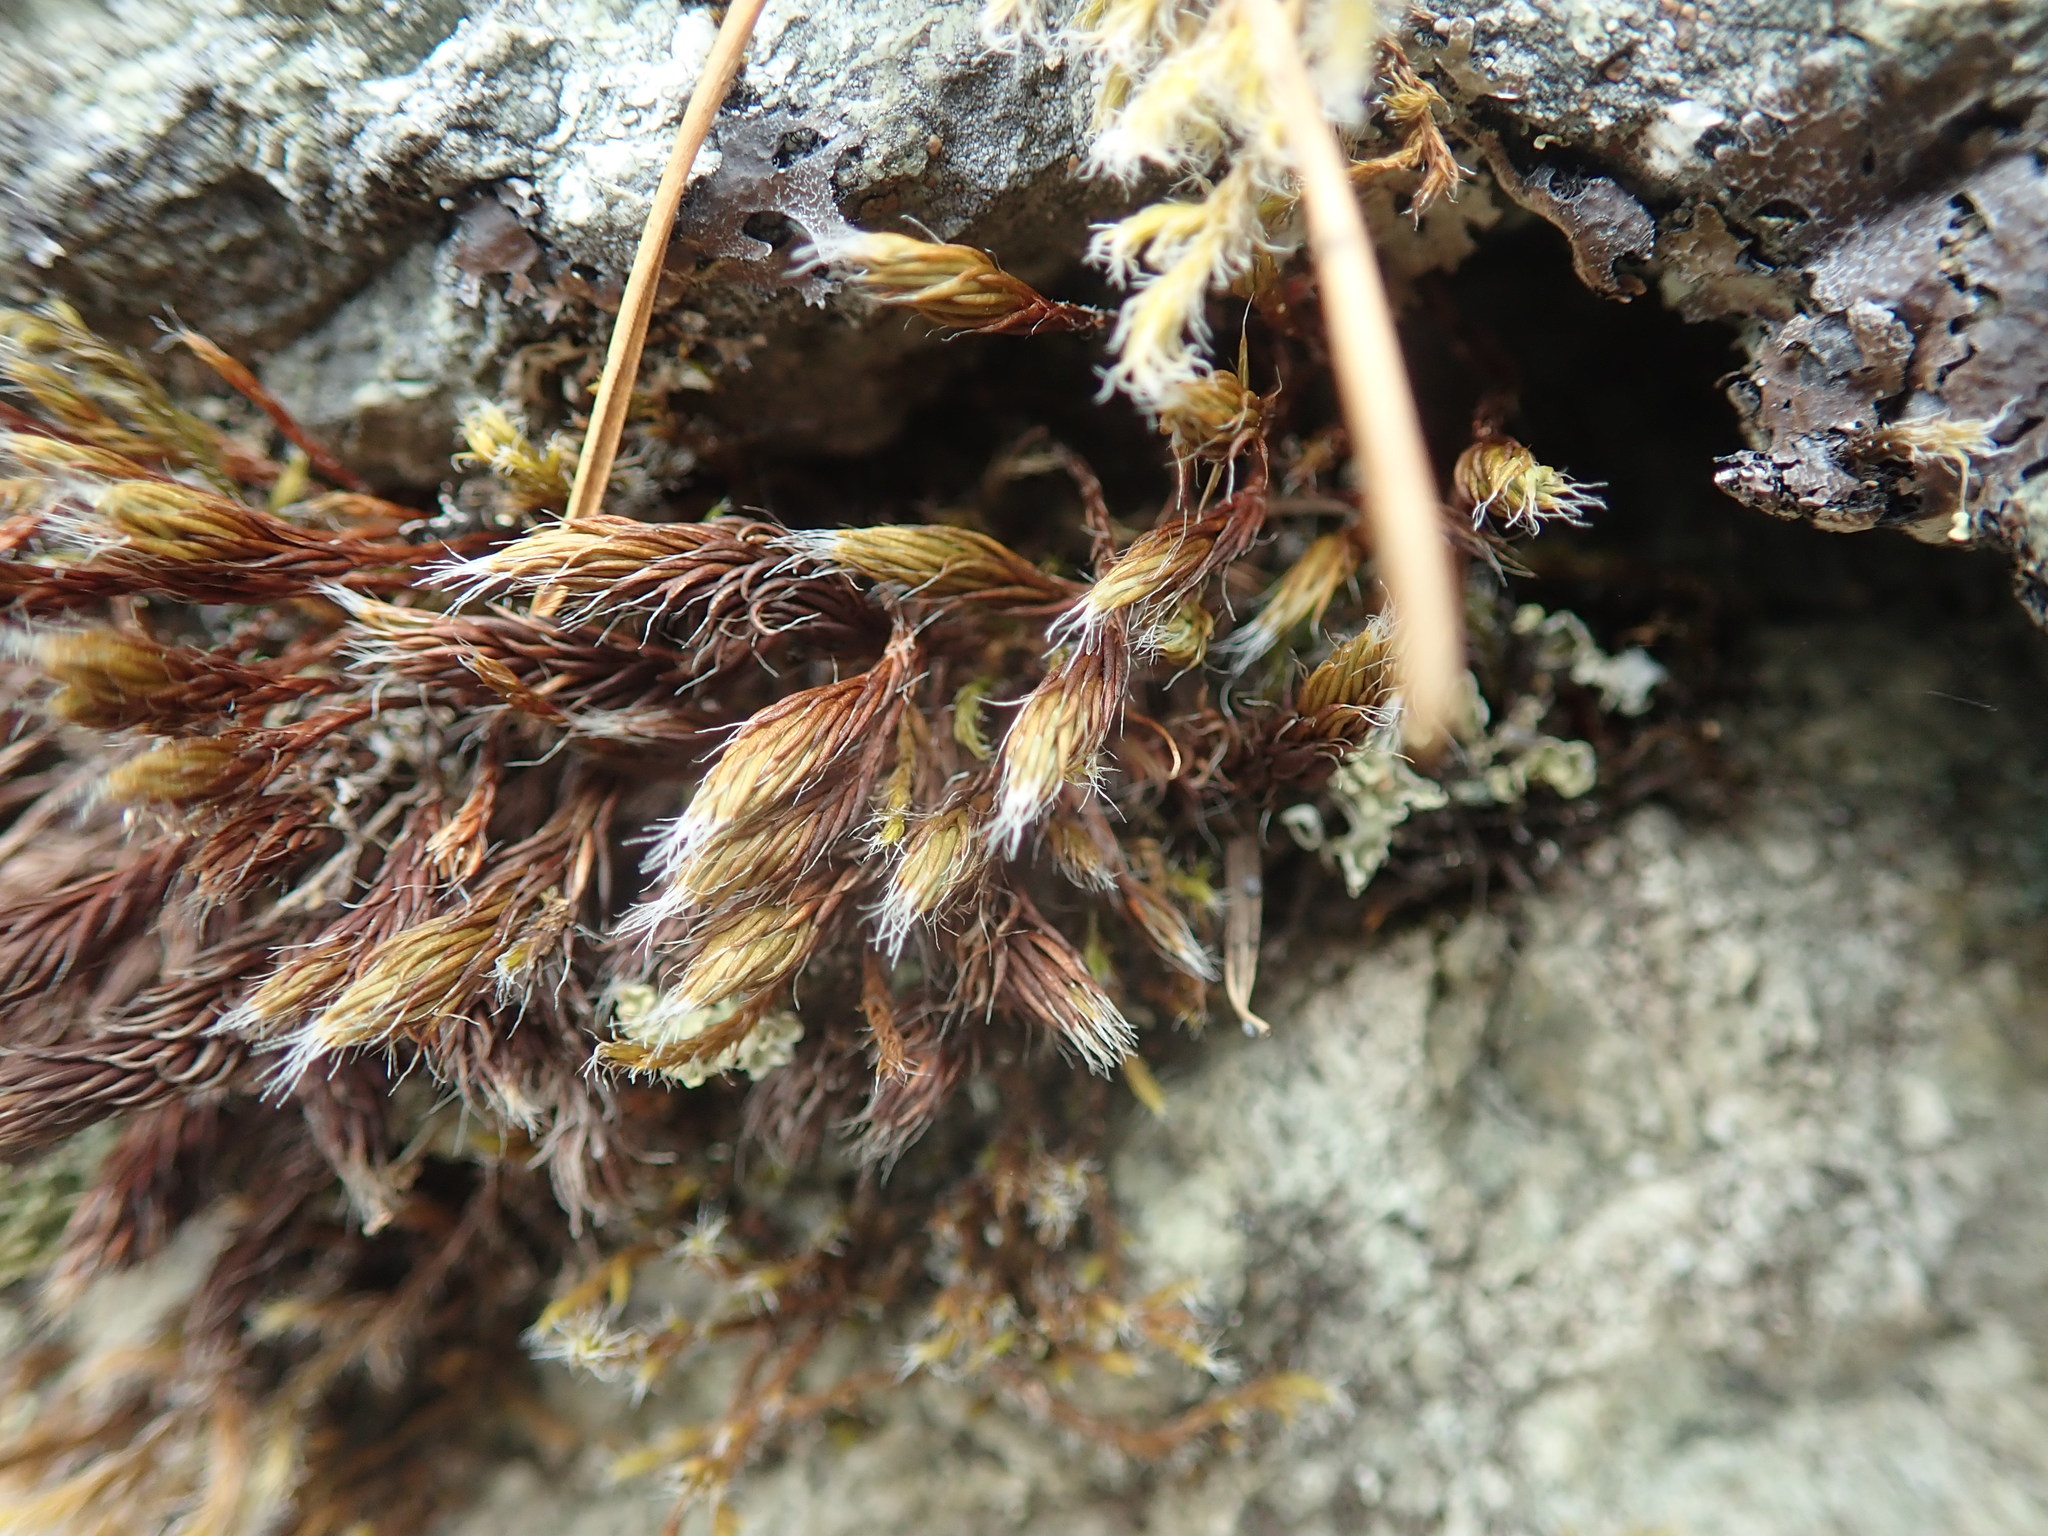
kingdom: Plantae
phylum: Bryophyta
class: Polytrichopsida
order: Polytrichales
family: Polytrichaceae
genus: Polytrichum
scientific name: Polytrichum piliferum
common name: Bristly haircap
